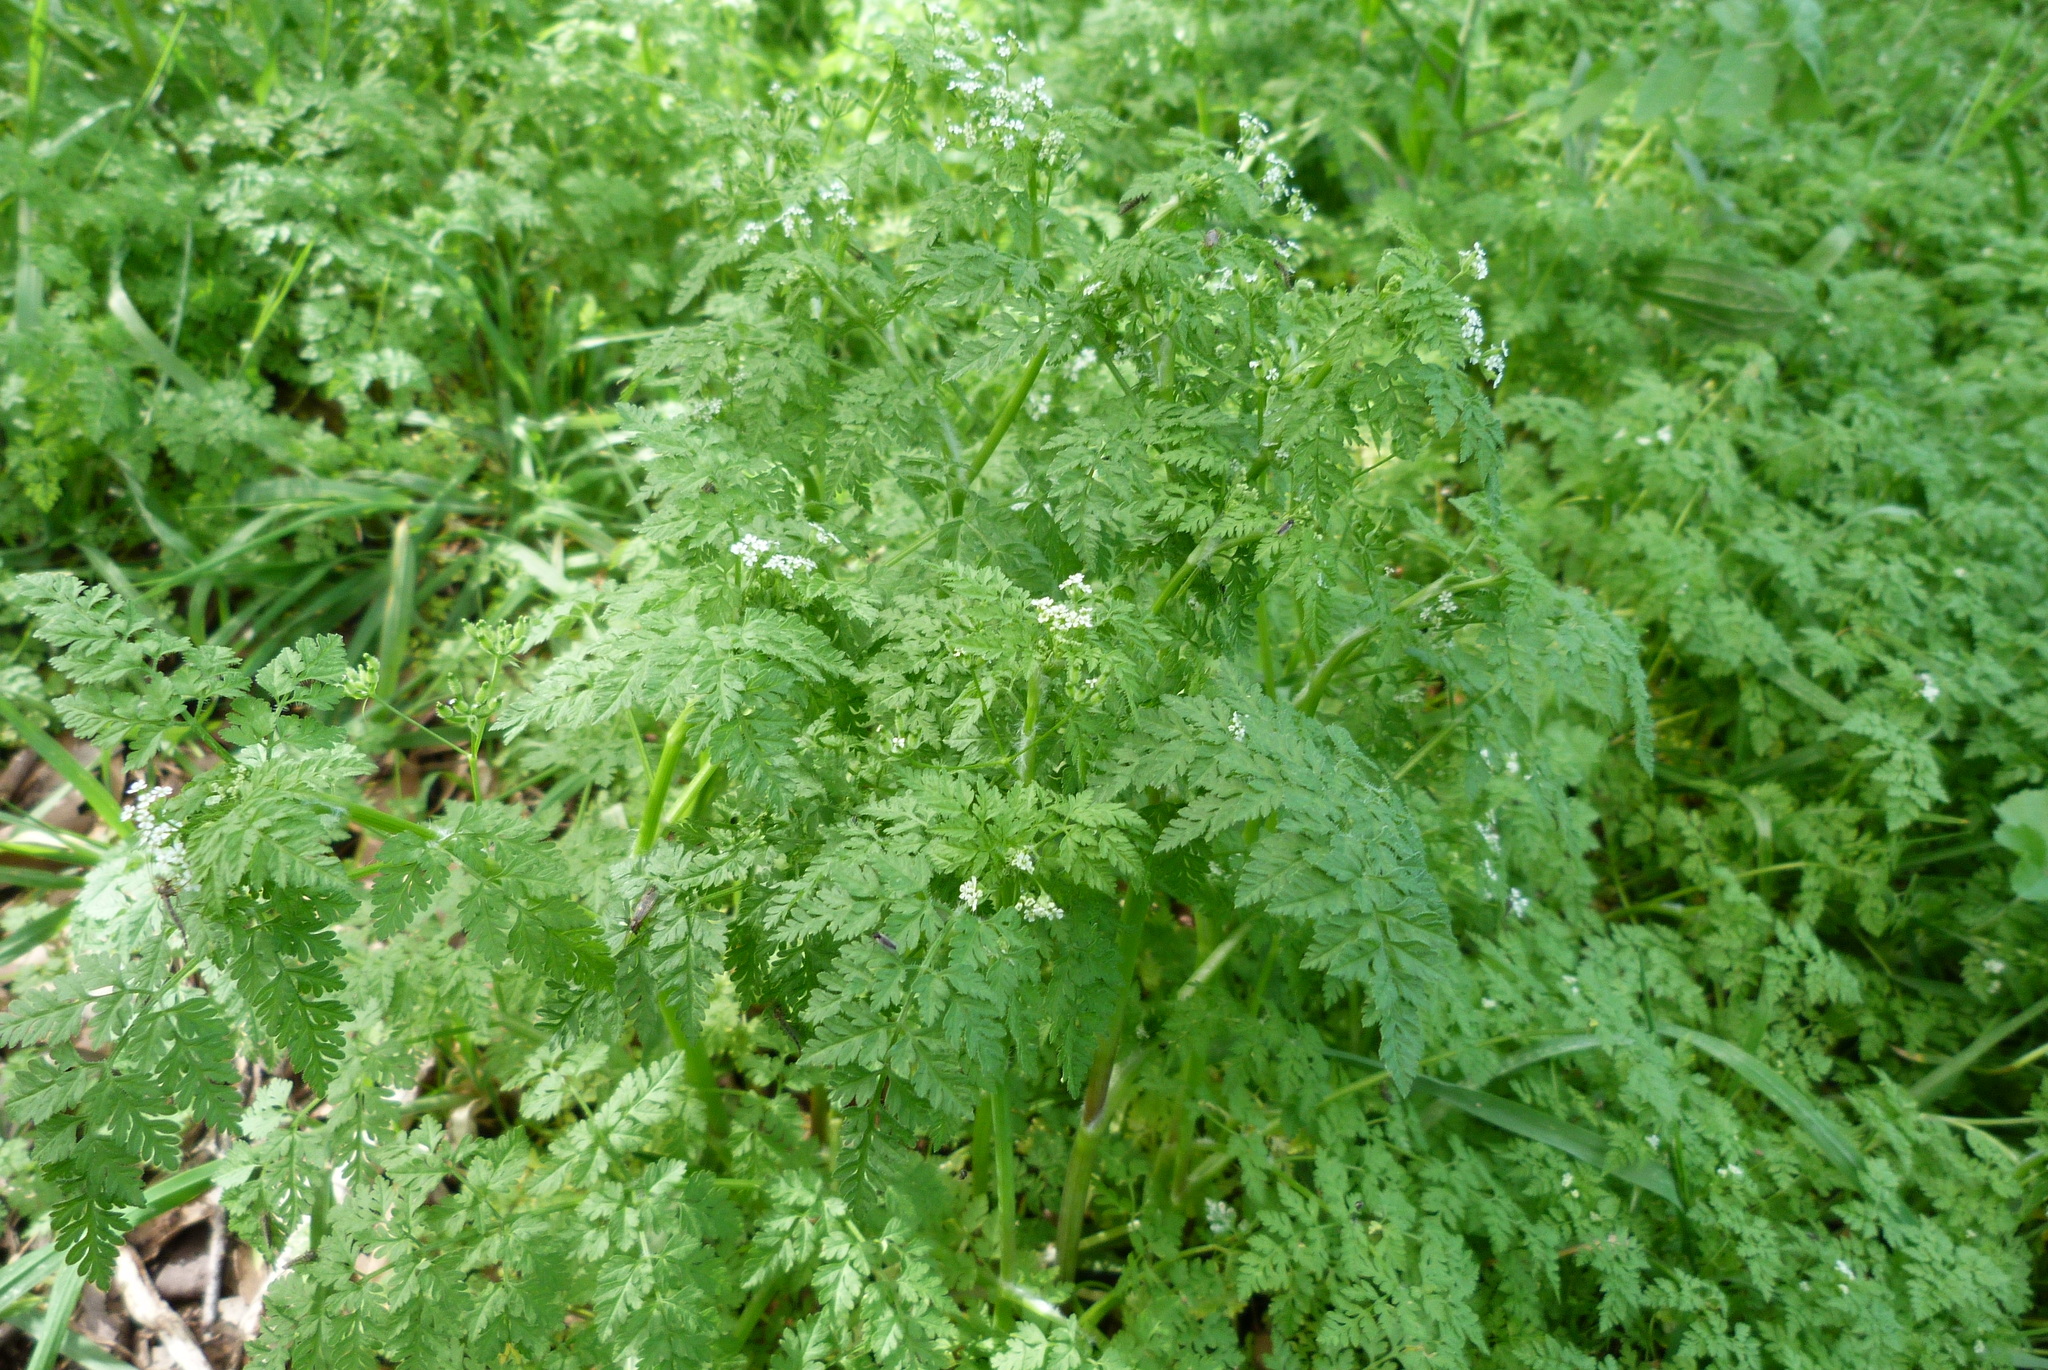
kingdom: Plantae
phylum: Tracheophyta
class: Magnoliopsida
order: Apiales
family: Apiaceae
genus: Anthriscus
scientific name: Anthriscus caucalis
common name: Bur chervil
